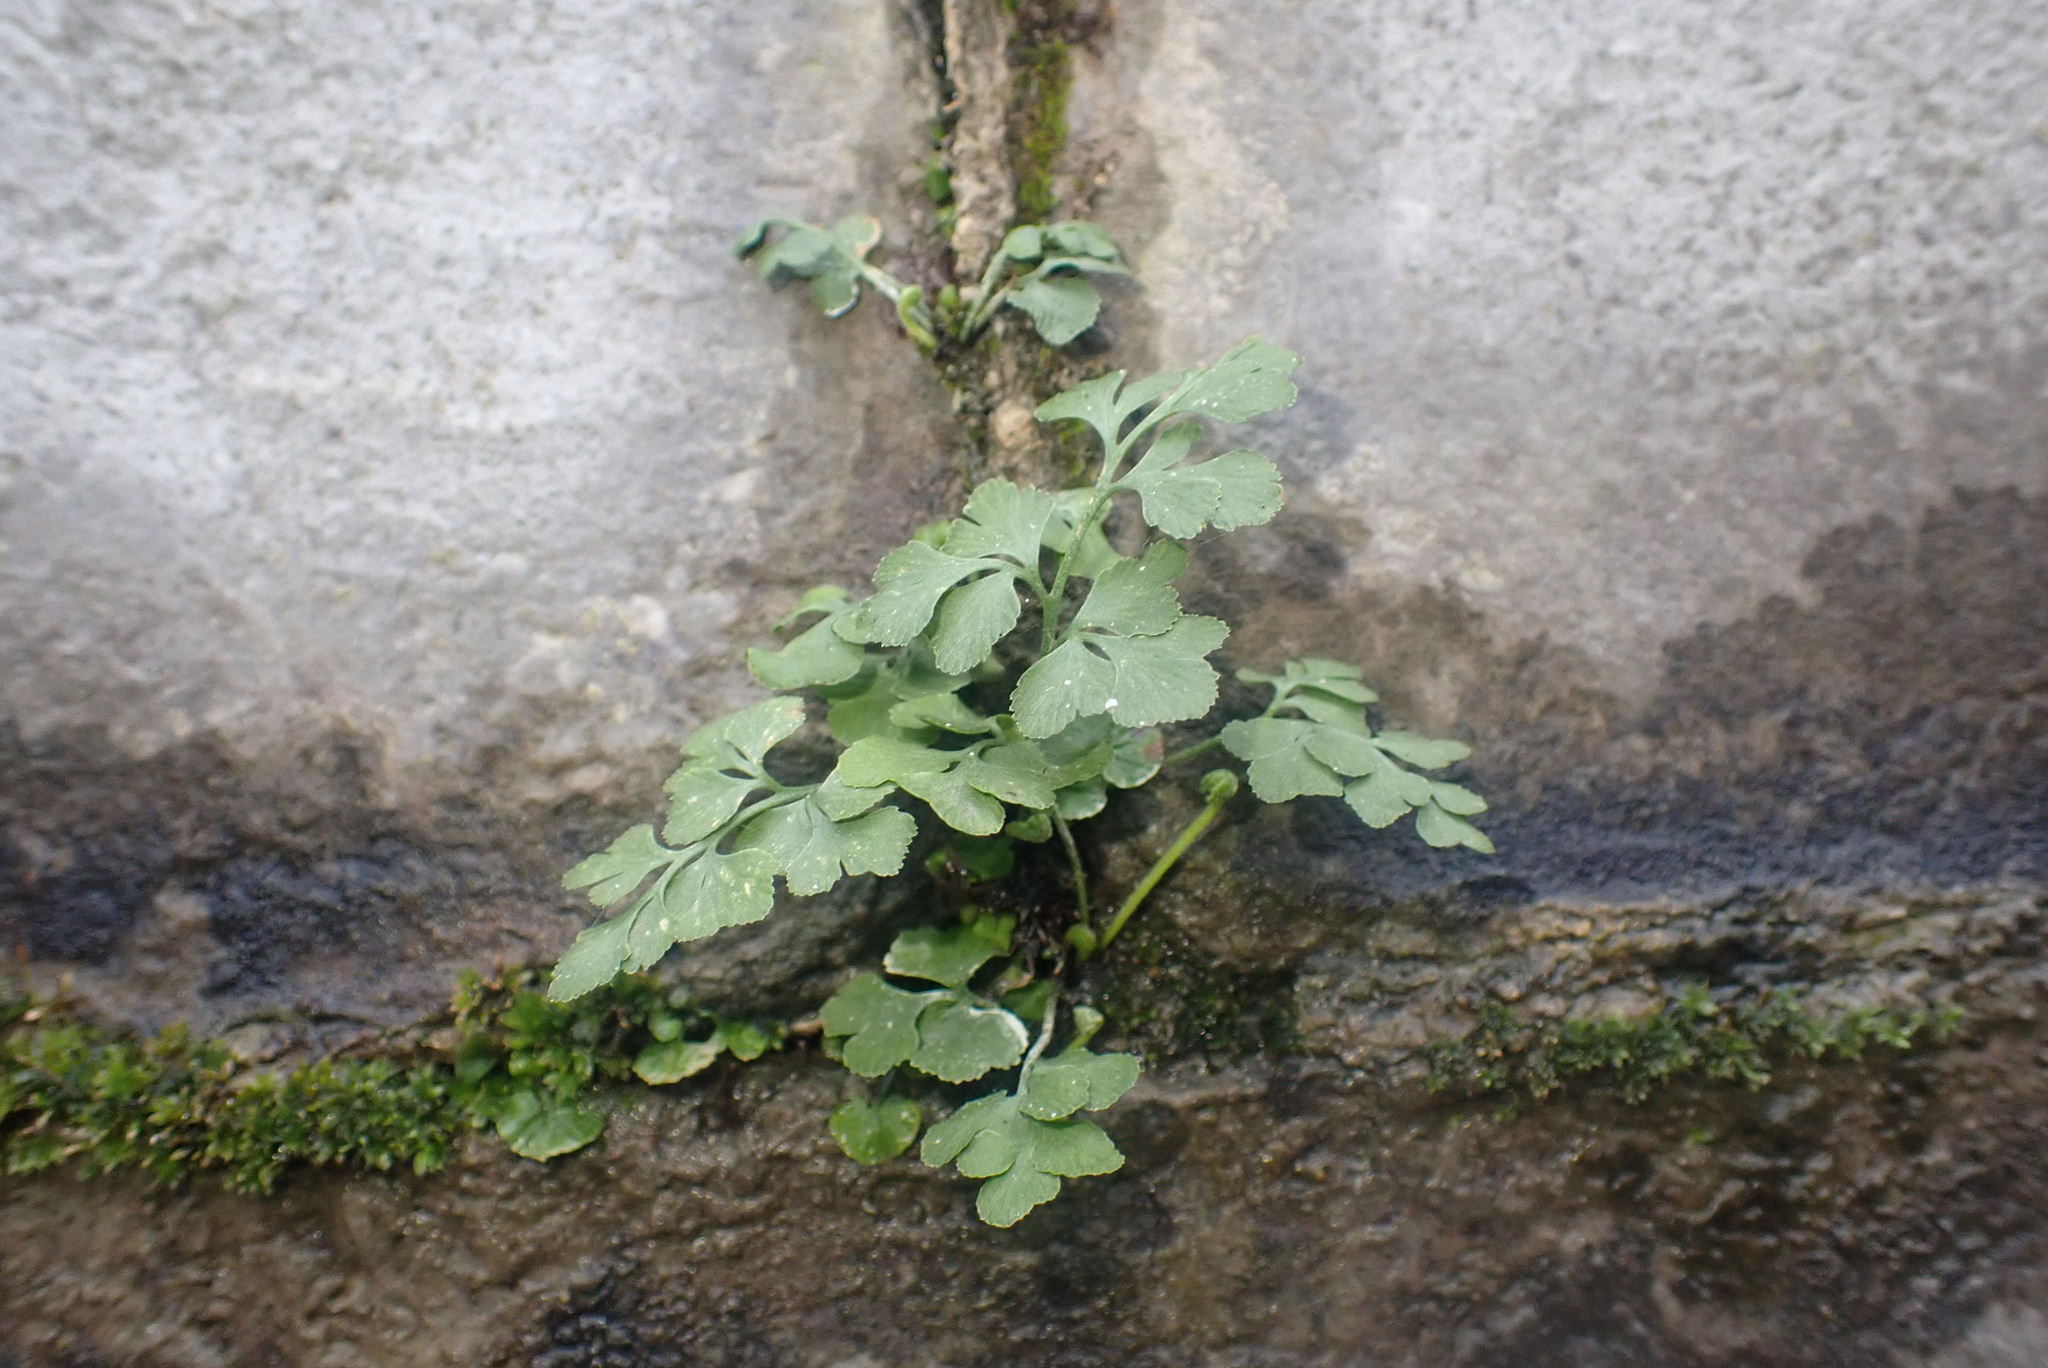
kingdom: Plantae
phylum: Tracheophyta
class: Polypodiopsida
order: Polypodiales
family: Aspleniaceae
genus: Asplenium
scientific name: Asplenium ruta-muraria
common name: Wall-rue
